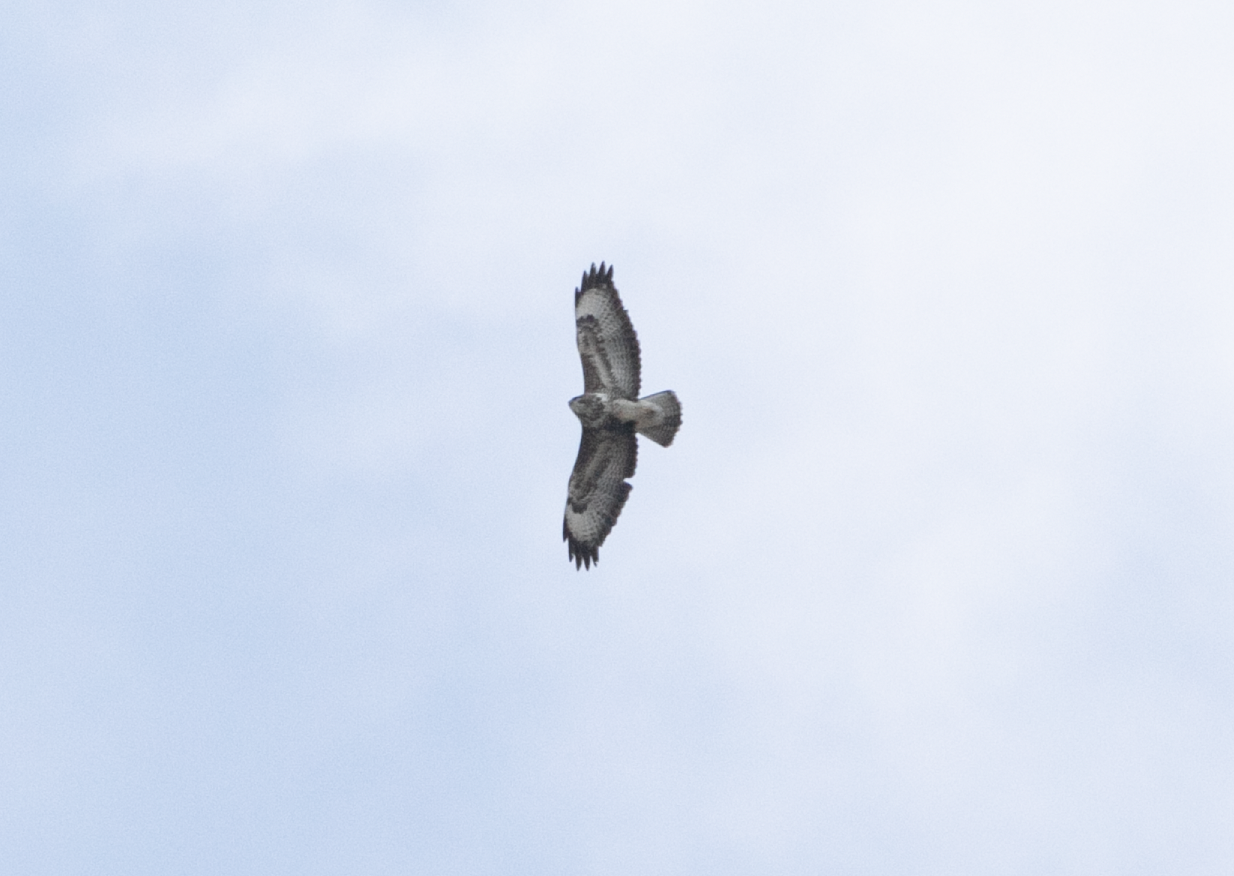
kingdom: Animalia
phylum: Chordata
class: Aves
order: Accipitriformes
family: Accipitridae
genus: Buteo
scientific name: Buteo buteo
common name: Common buzzard
